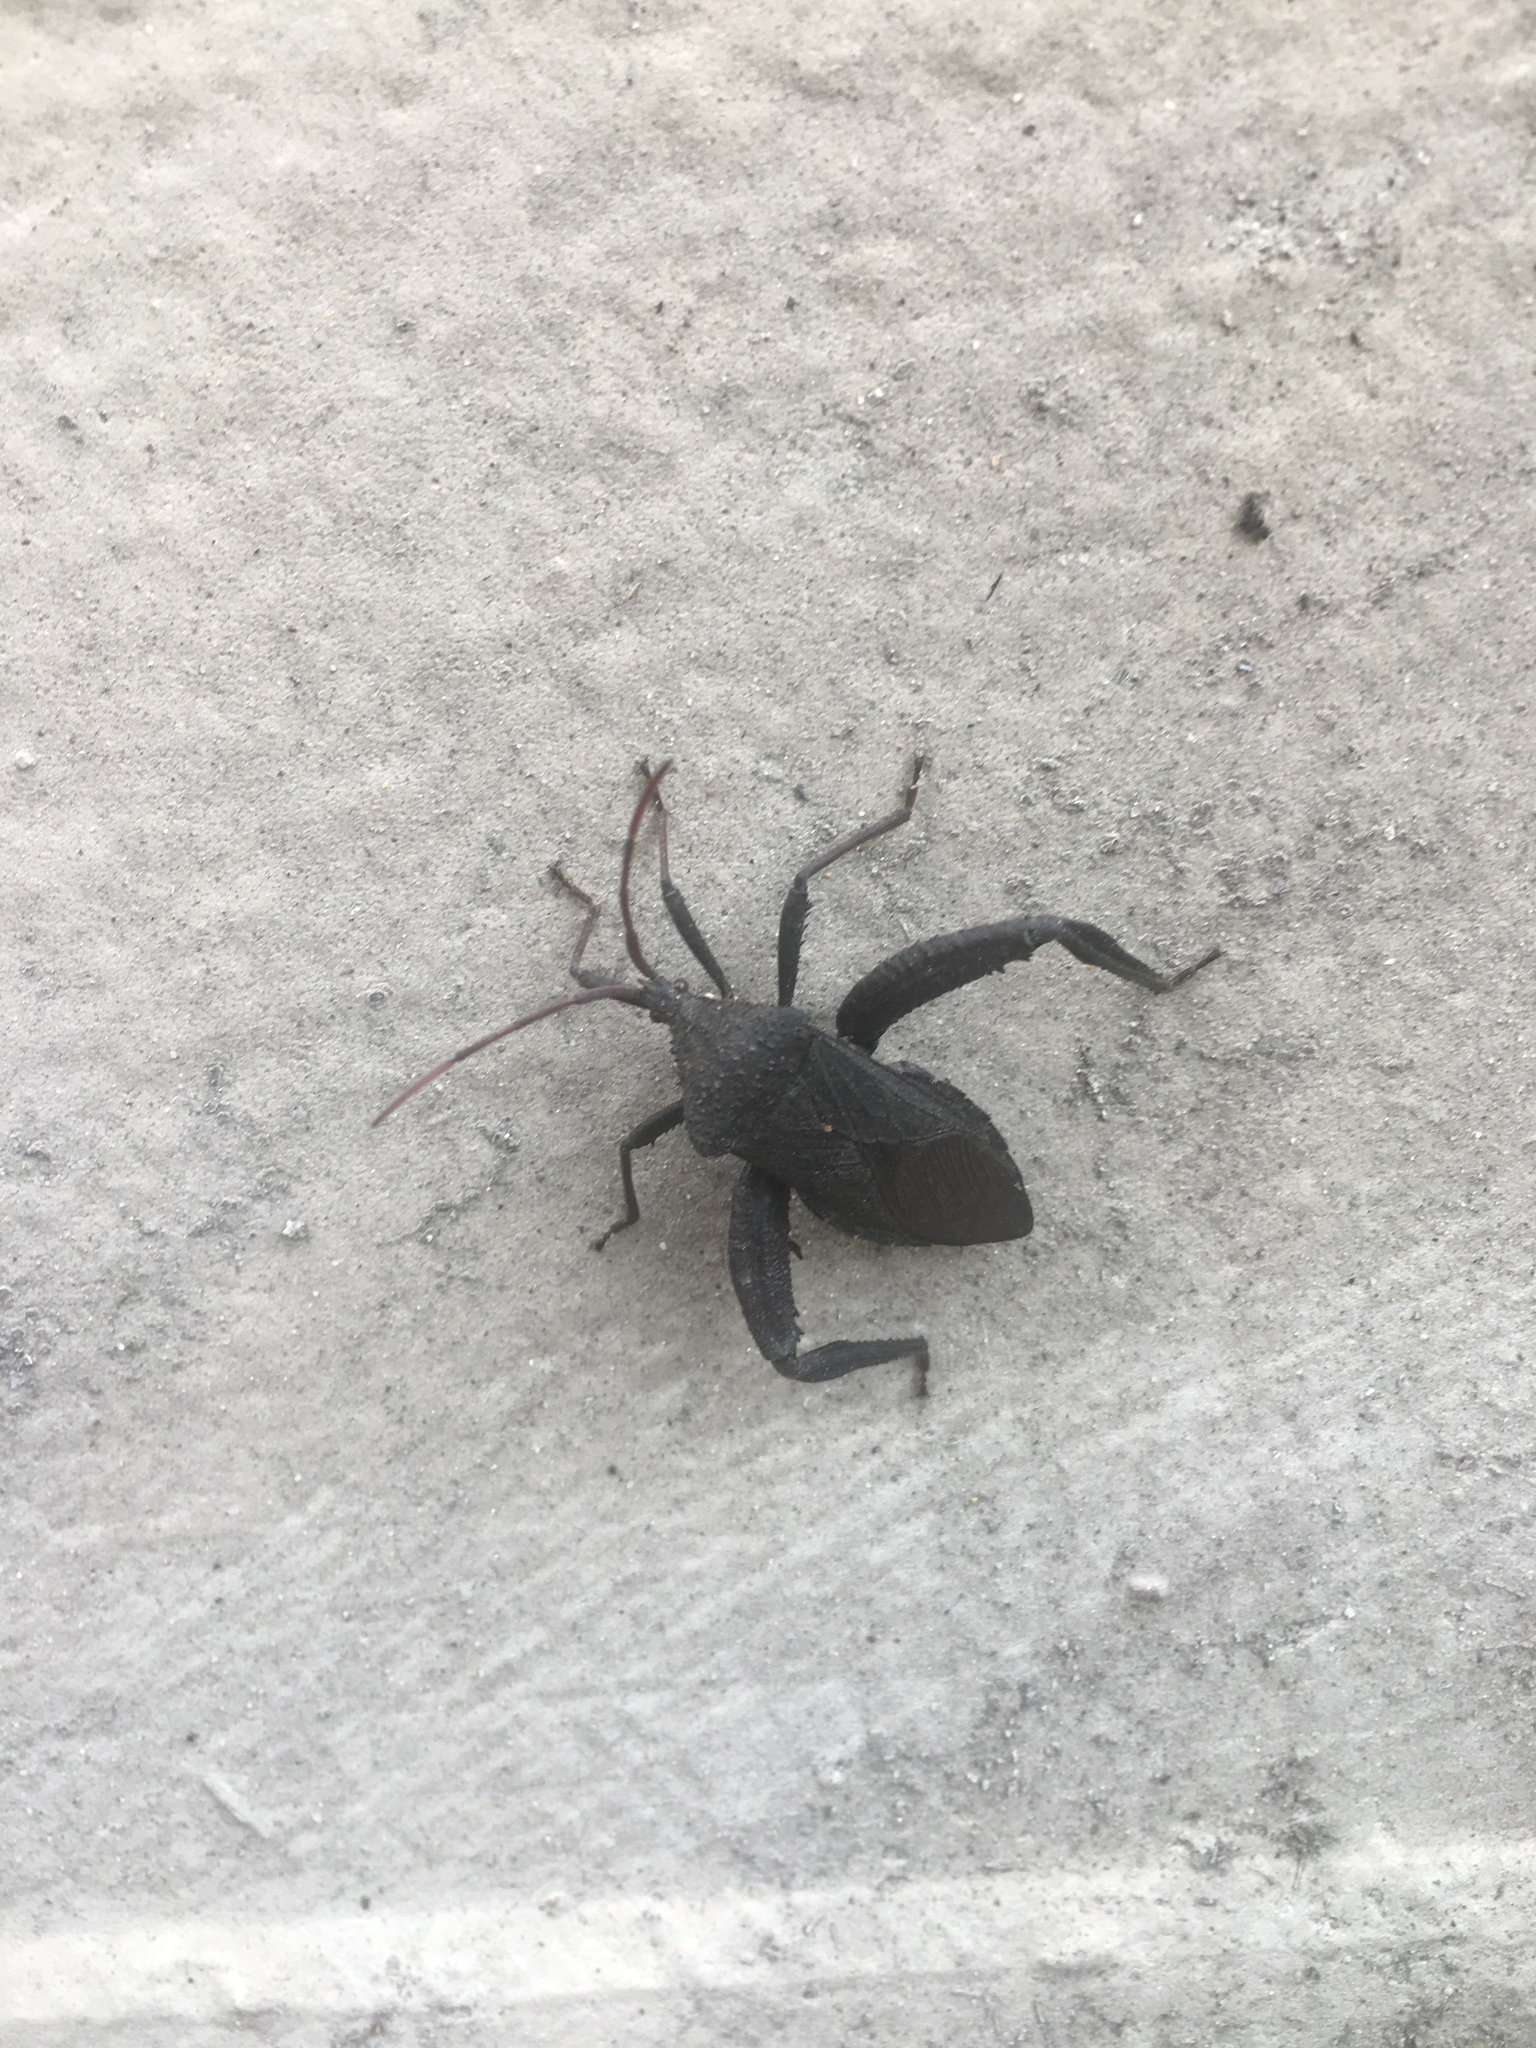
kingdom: Animalia
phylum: Arthropoda
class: Insecta
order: Hemiptera
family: Coreidae
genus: Acanthocephala
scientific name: Acanthocephala femorata
